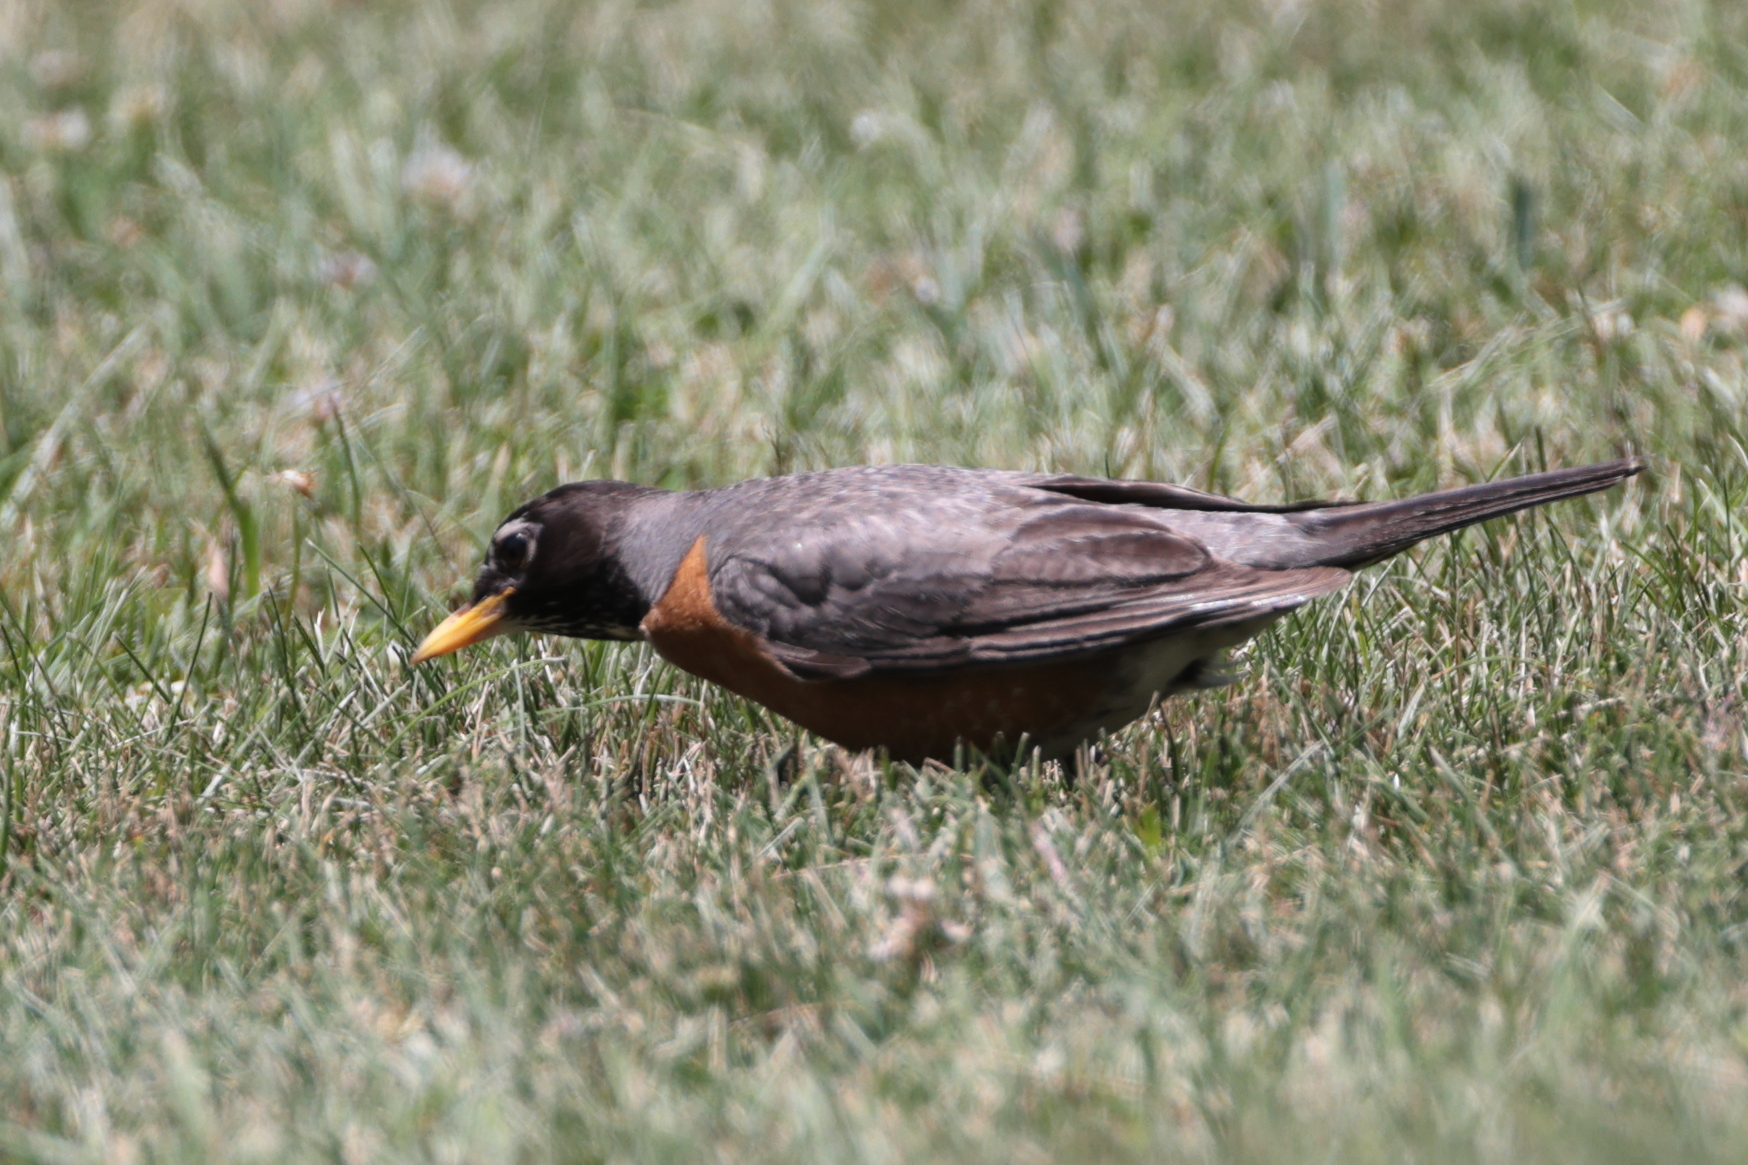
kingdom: Animalia
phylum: Chordata
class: Aves
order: Passeriformes
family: Turdidae
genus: Turdus
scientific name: Turdus migratorius
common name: American robin
